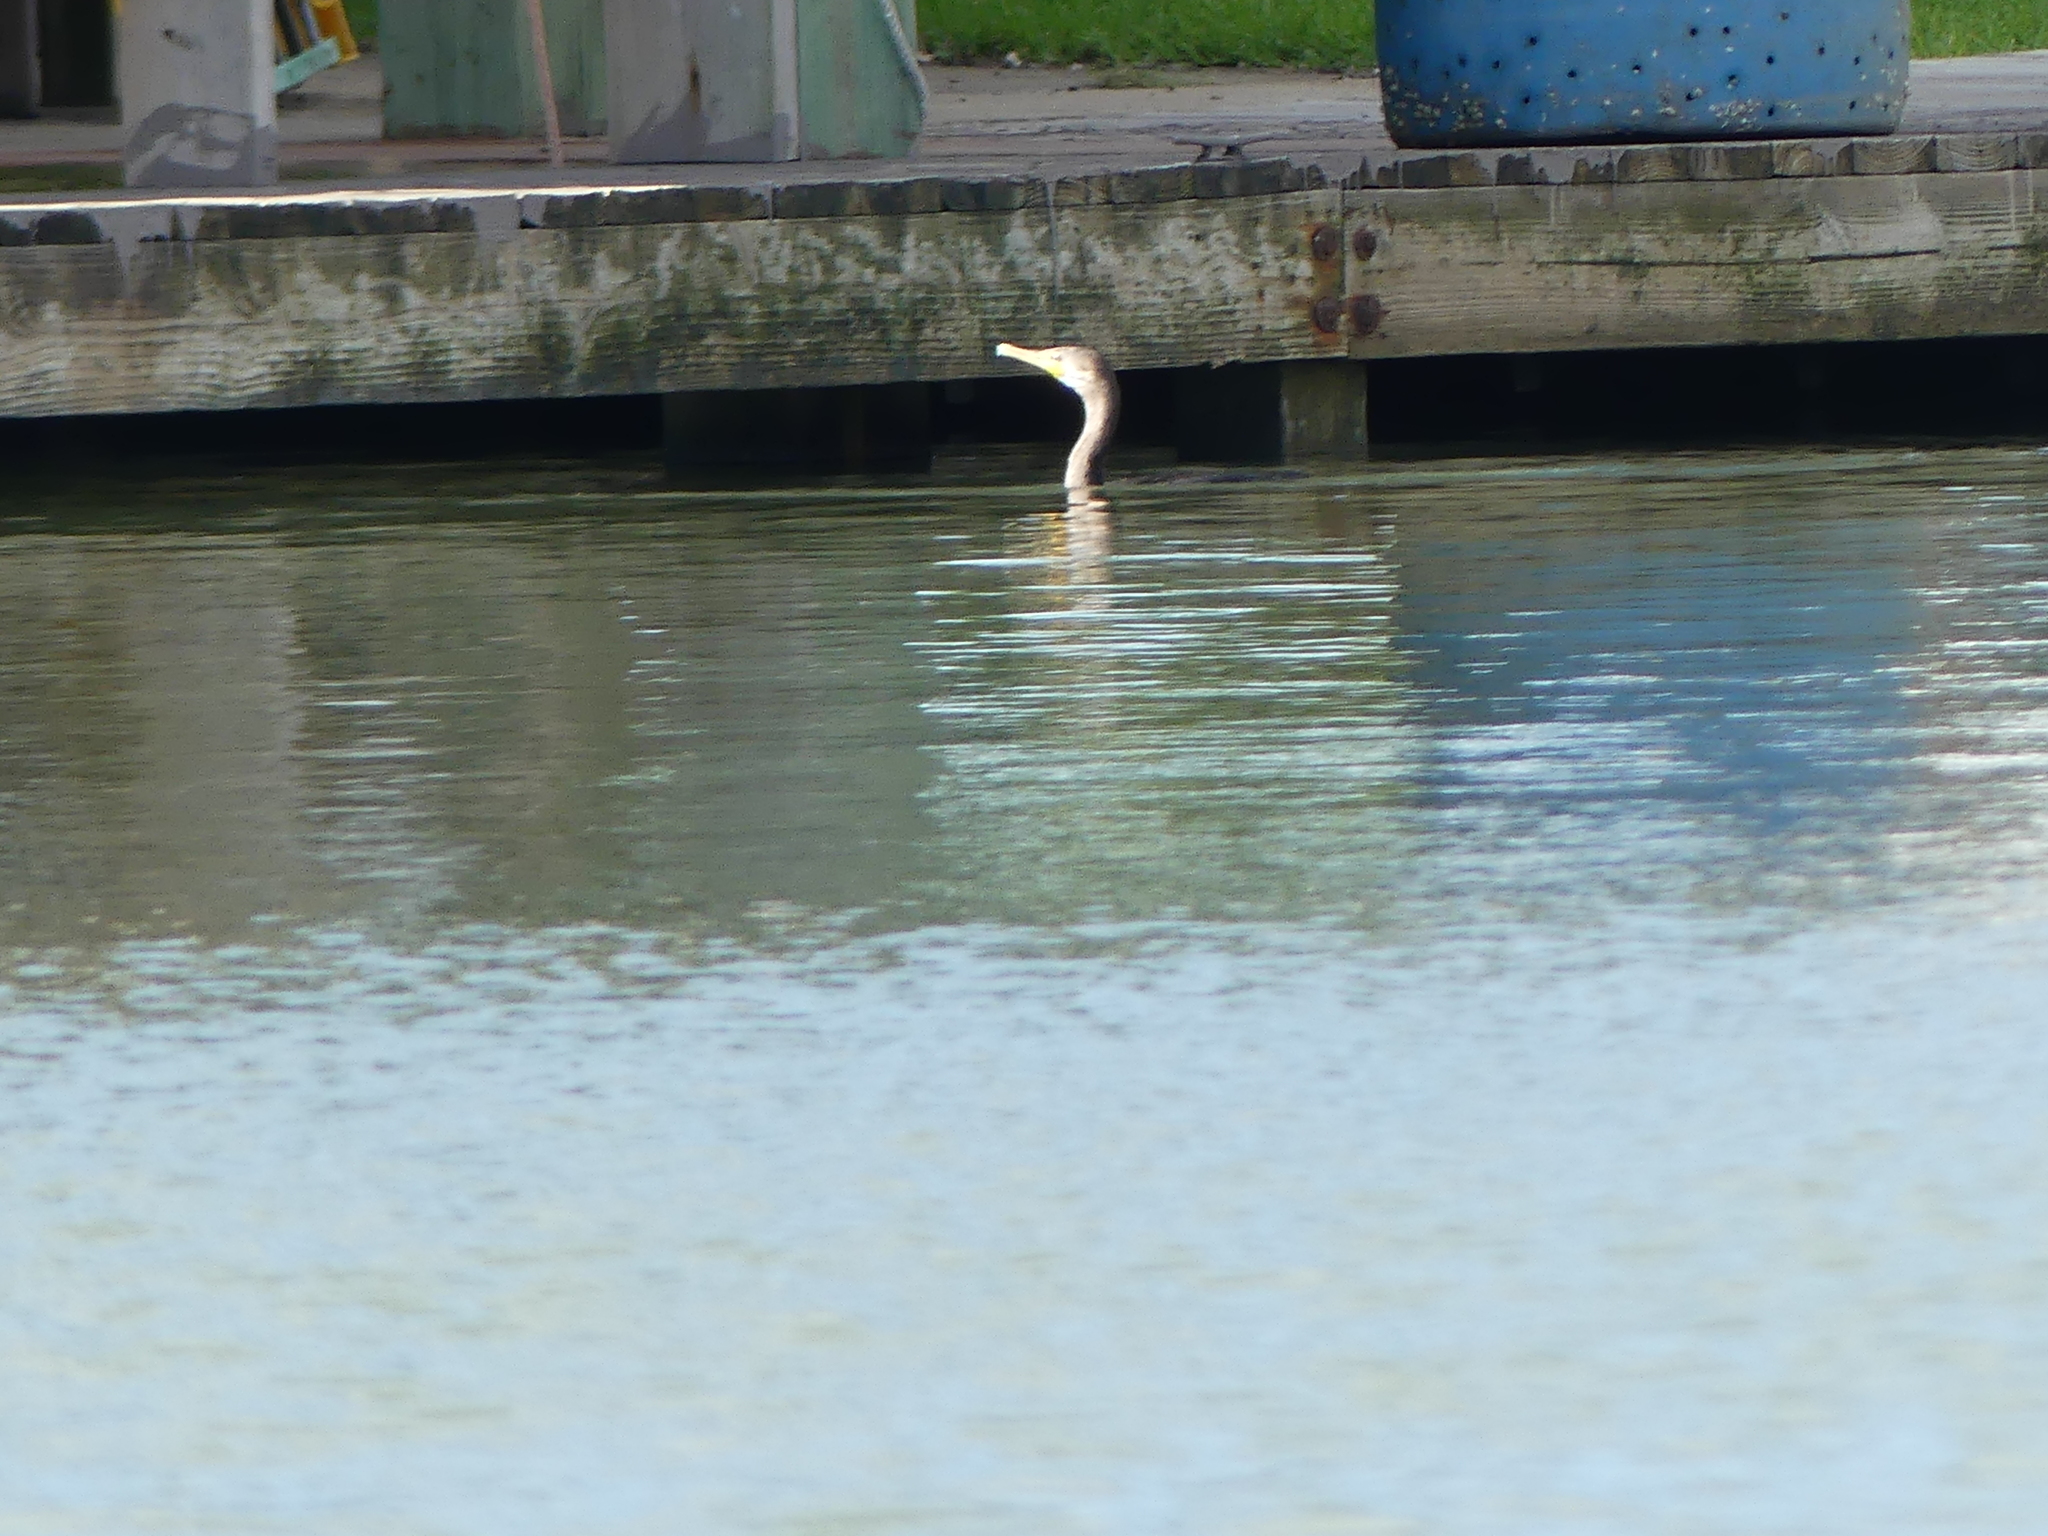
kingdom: Animalia
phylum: Chordata
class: Aves
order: Suliformes
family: Phalacrocoracidae
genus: Phalacrocorax
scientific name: Phalacrocorax auritus
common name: Double-crested cormorant
